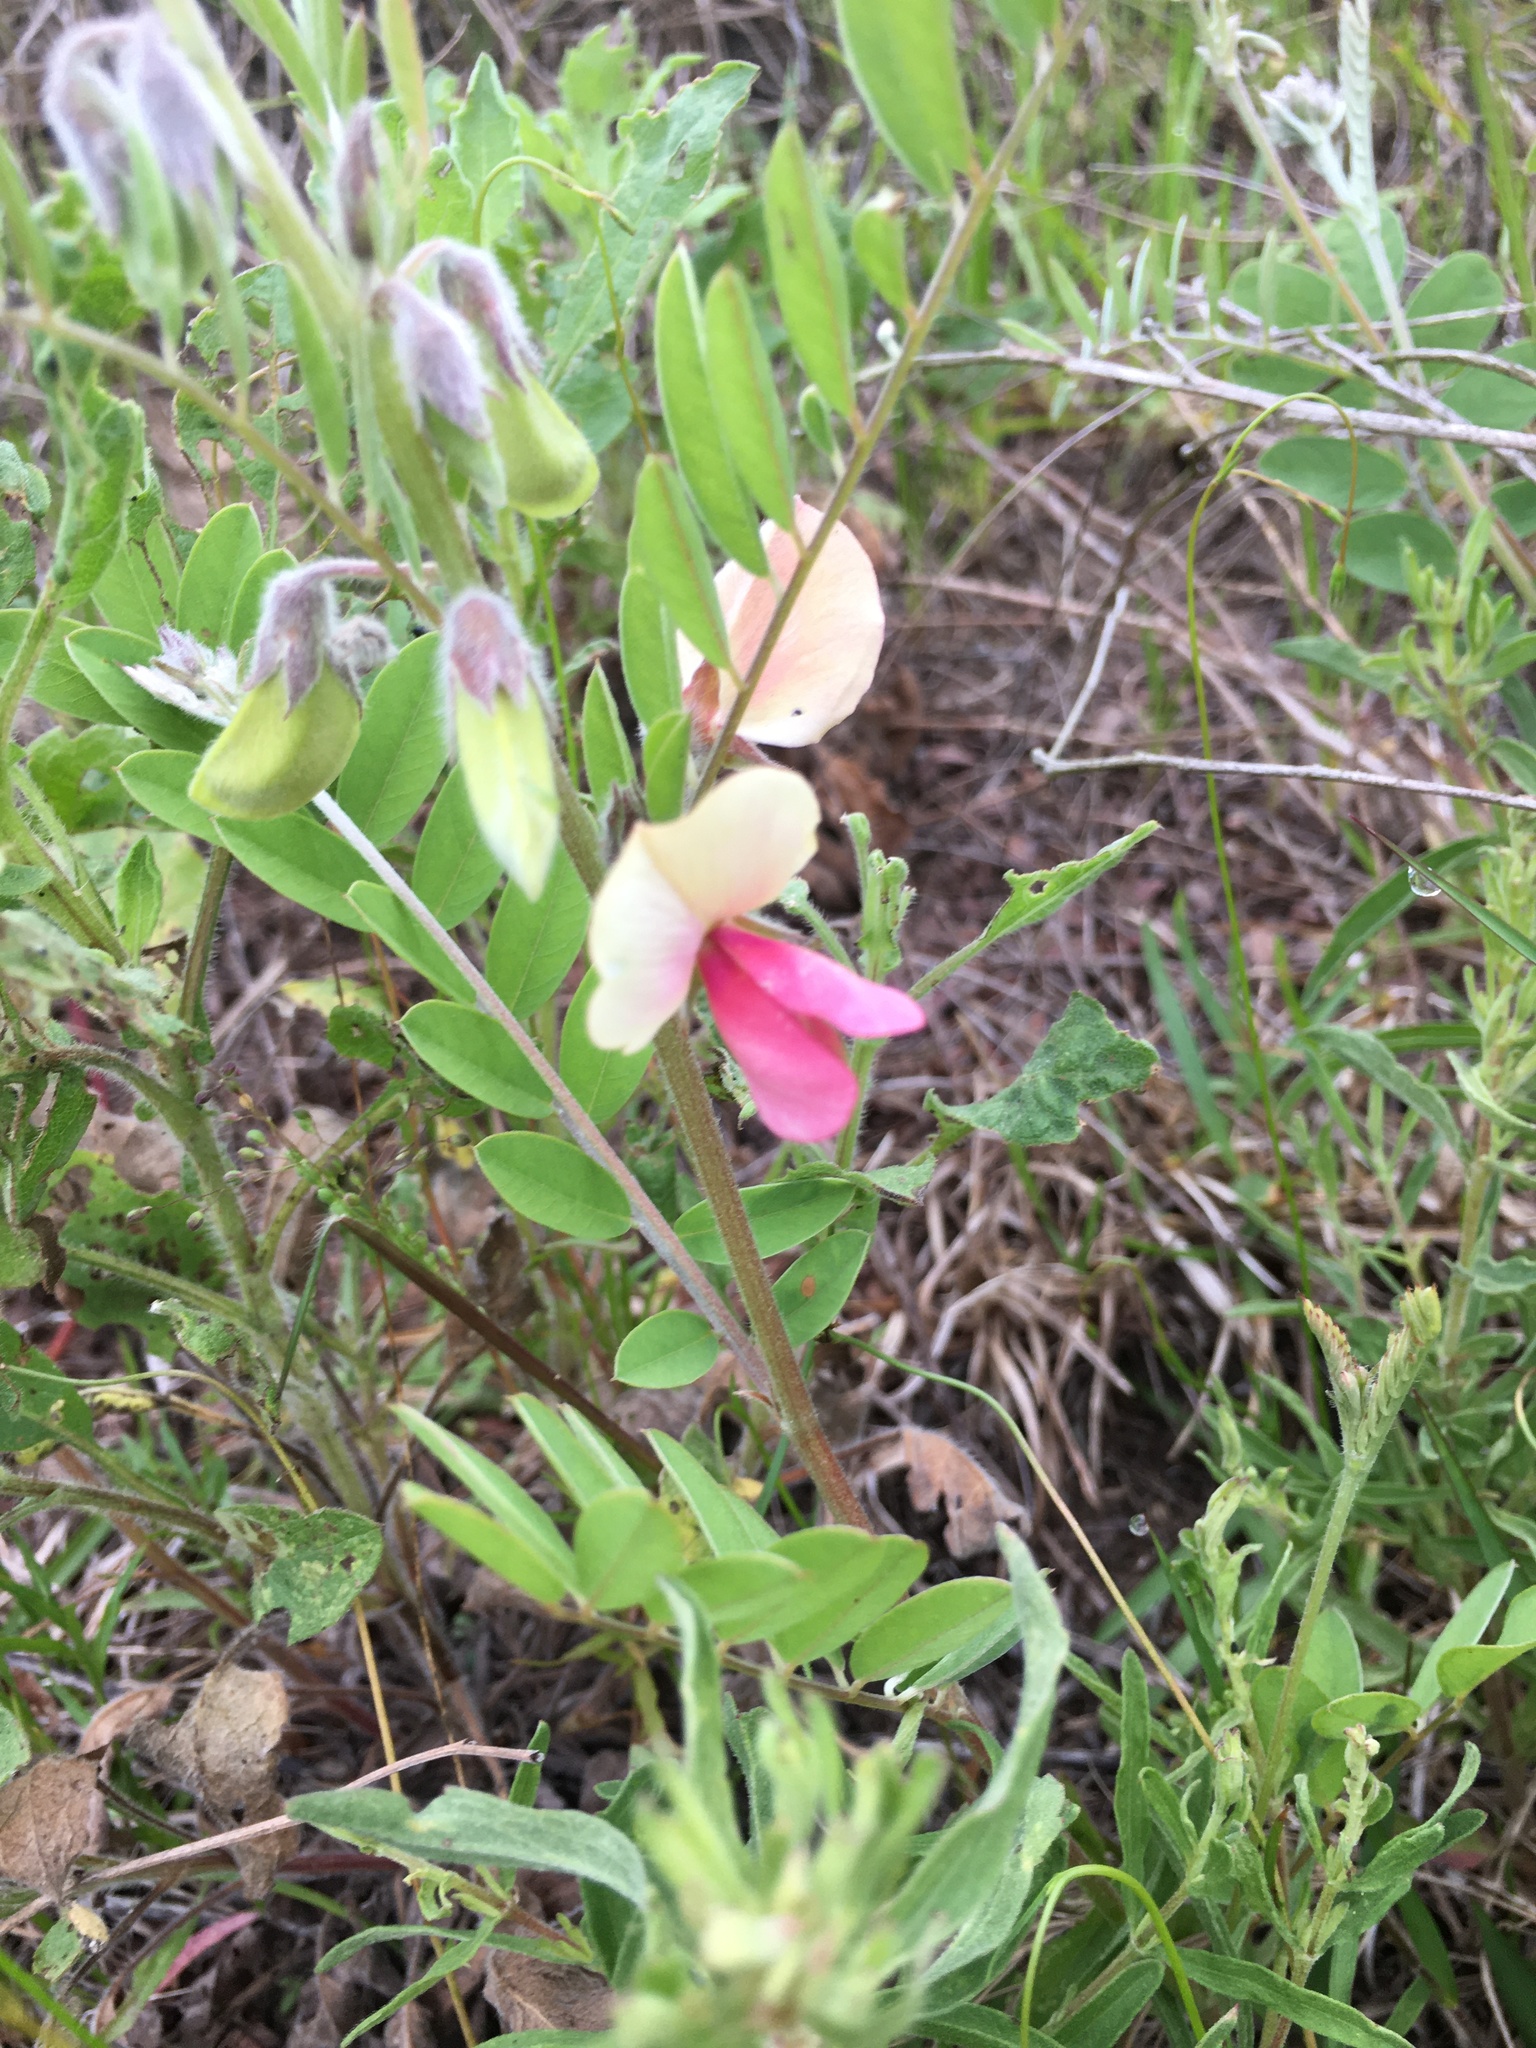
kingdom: Plantae
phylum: Tracheophyta
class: Magnoliopsida
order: Fabales
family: Fabaceae
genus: Tephrosia
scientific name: Tephrosia virginiana
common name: Rabbit-pea
